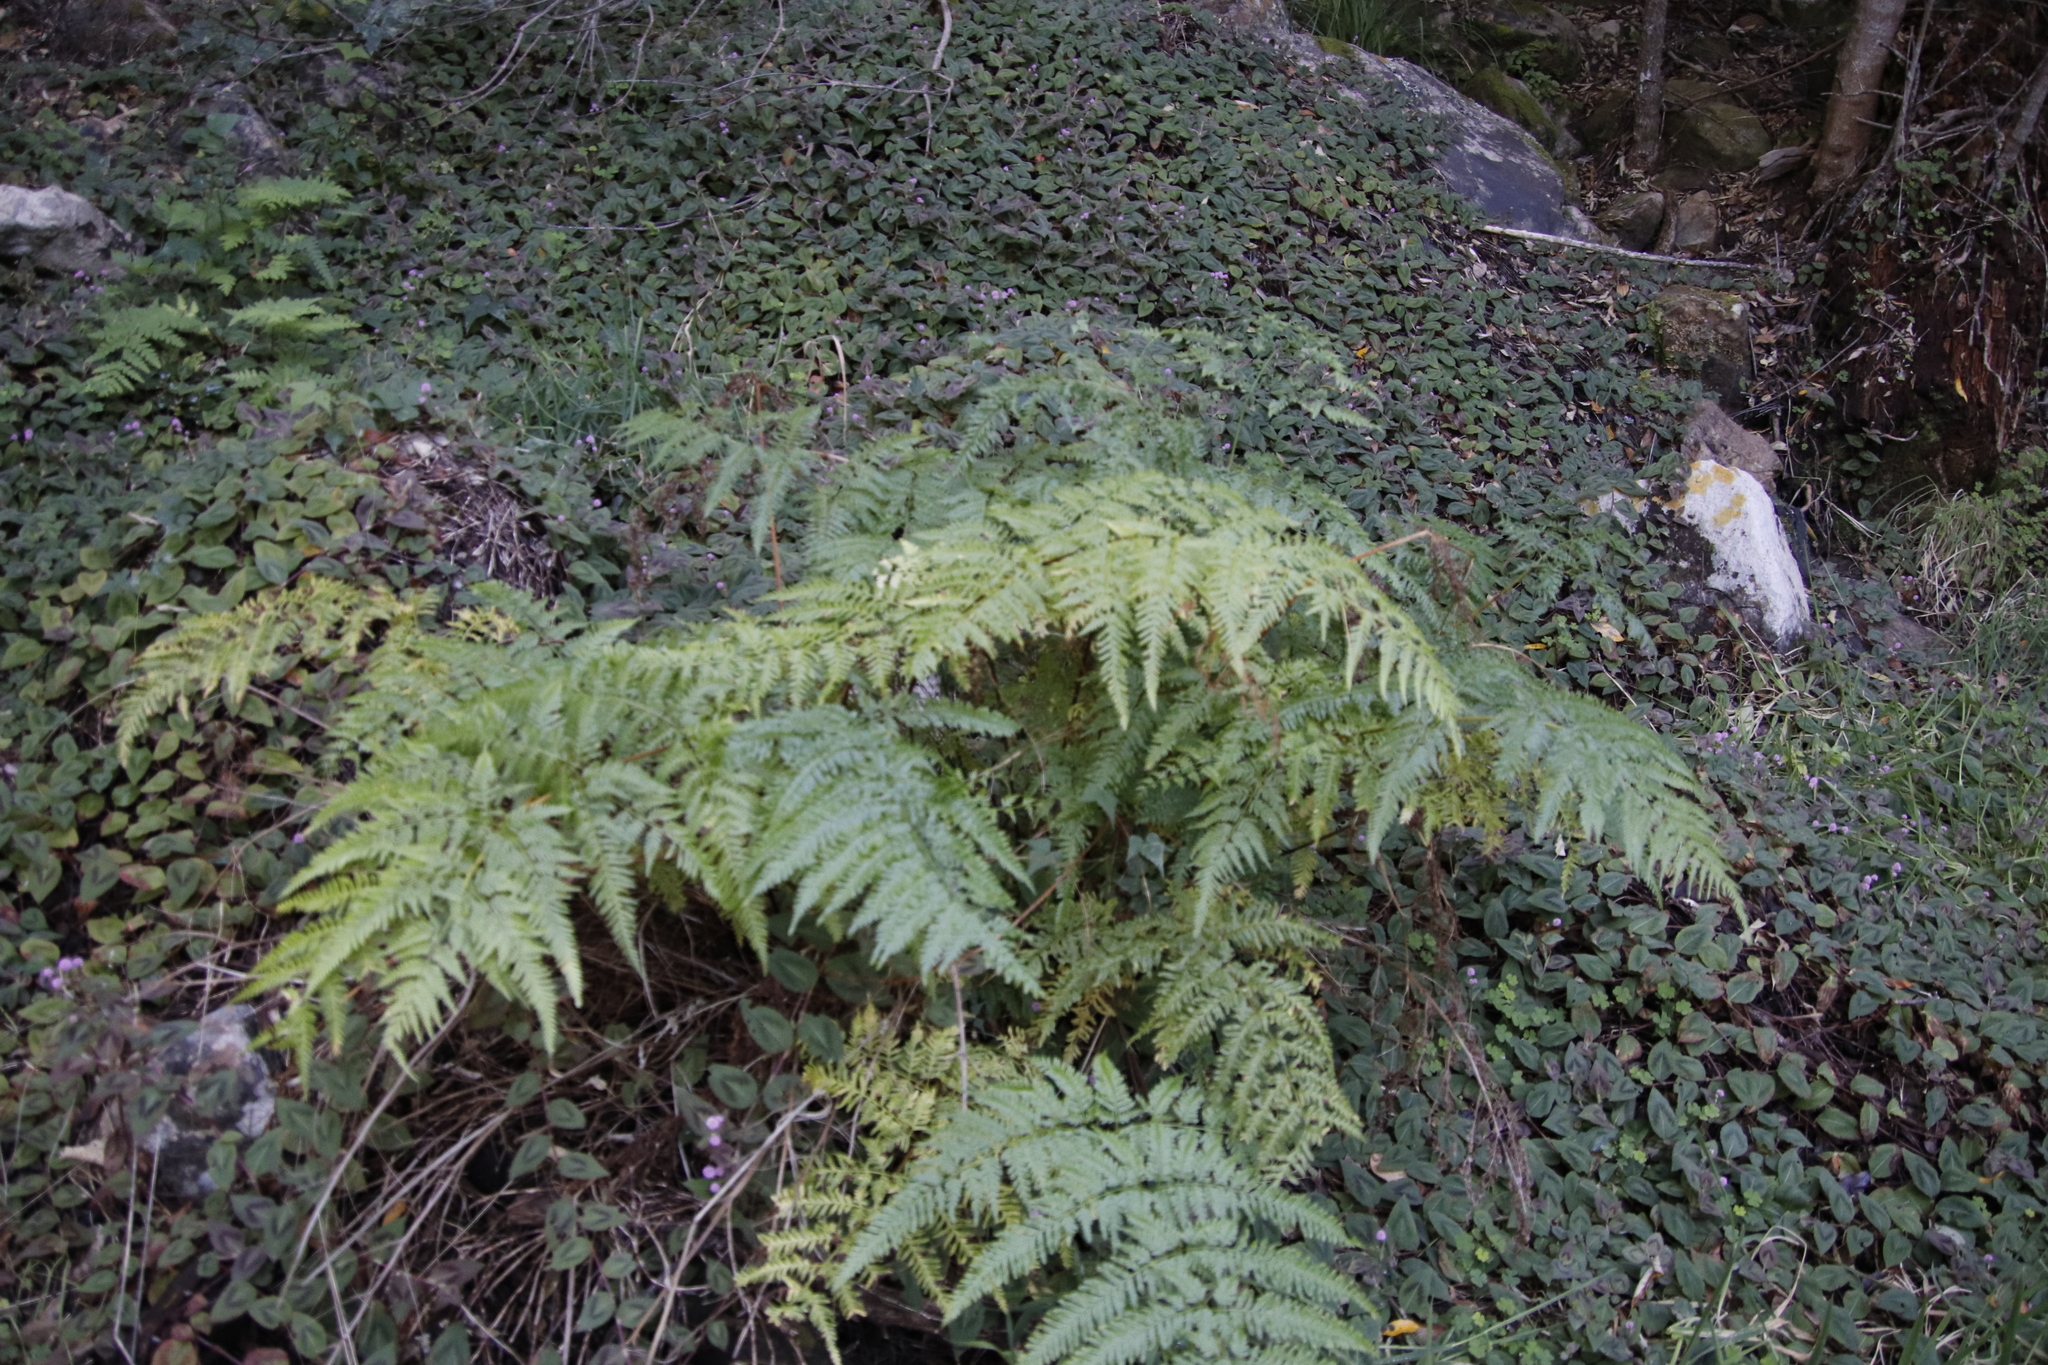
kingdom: Plantae
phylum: Tracheophyta
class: Polypodiopsida
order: Polypodiales
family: Pteridaceae
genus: Pteris
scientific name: Pteris dentata
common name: Toothed brake
